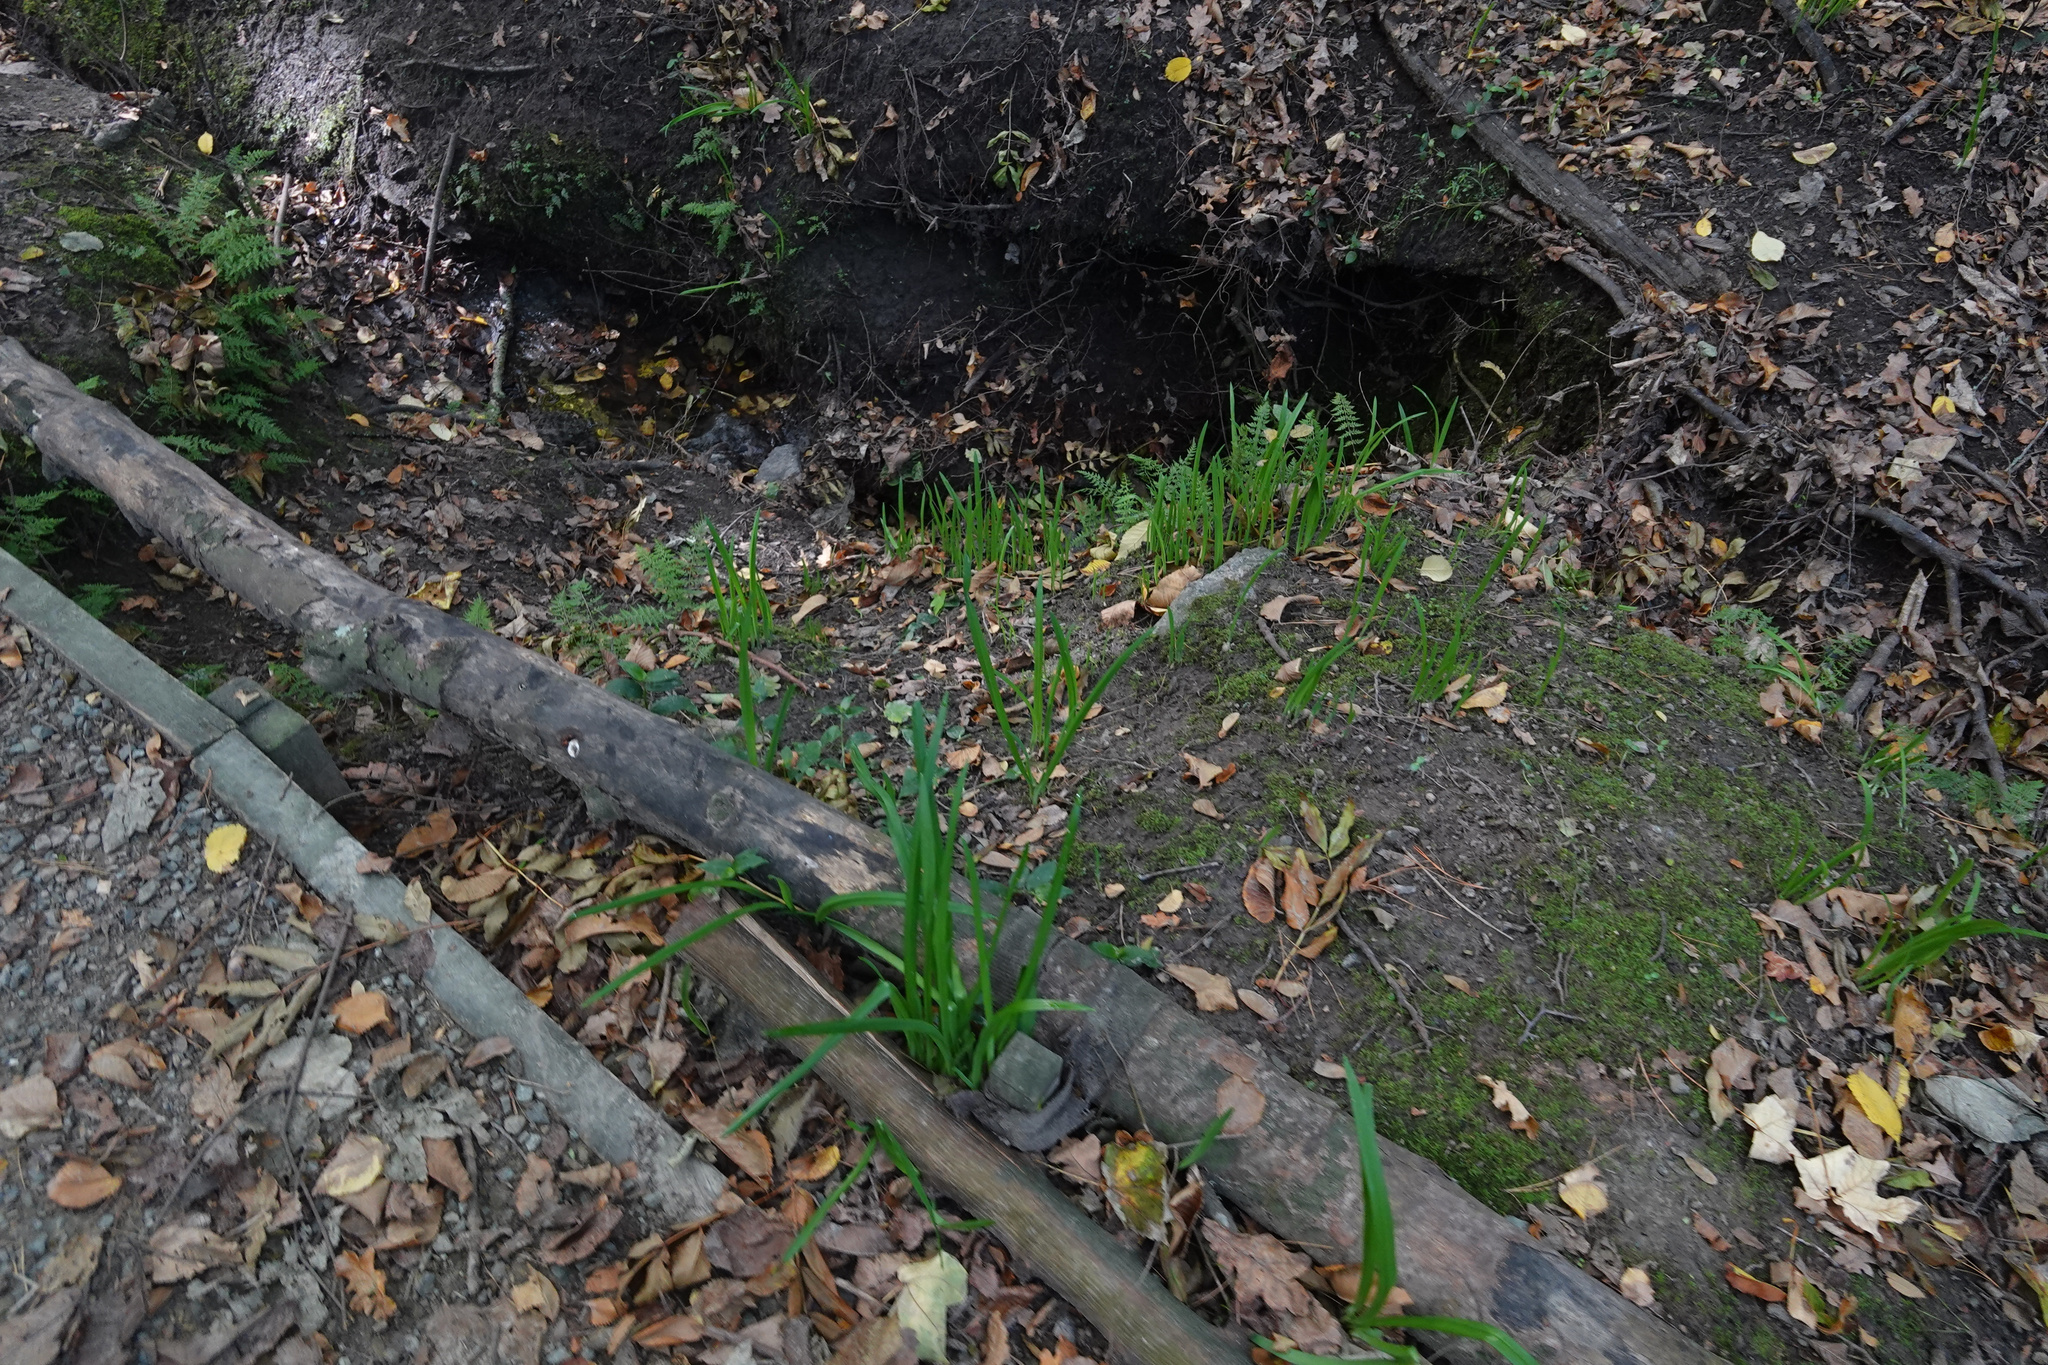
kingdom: Plantae
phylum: Tracheophyta
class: Liliopsida
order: Asparagales
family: Amaryllidaceae
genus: Allium
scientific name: Allium triquetrum
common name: Three-cornered garlic
